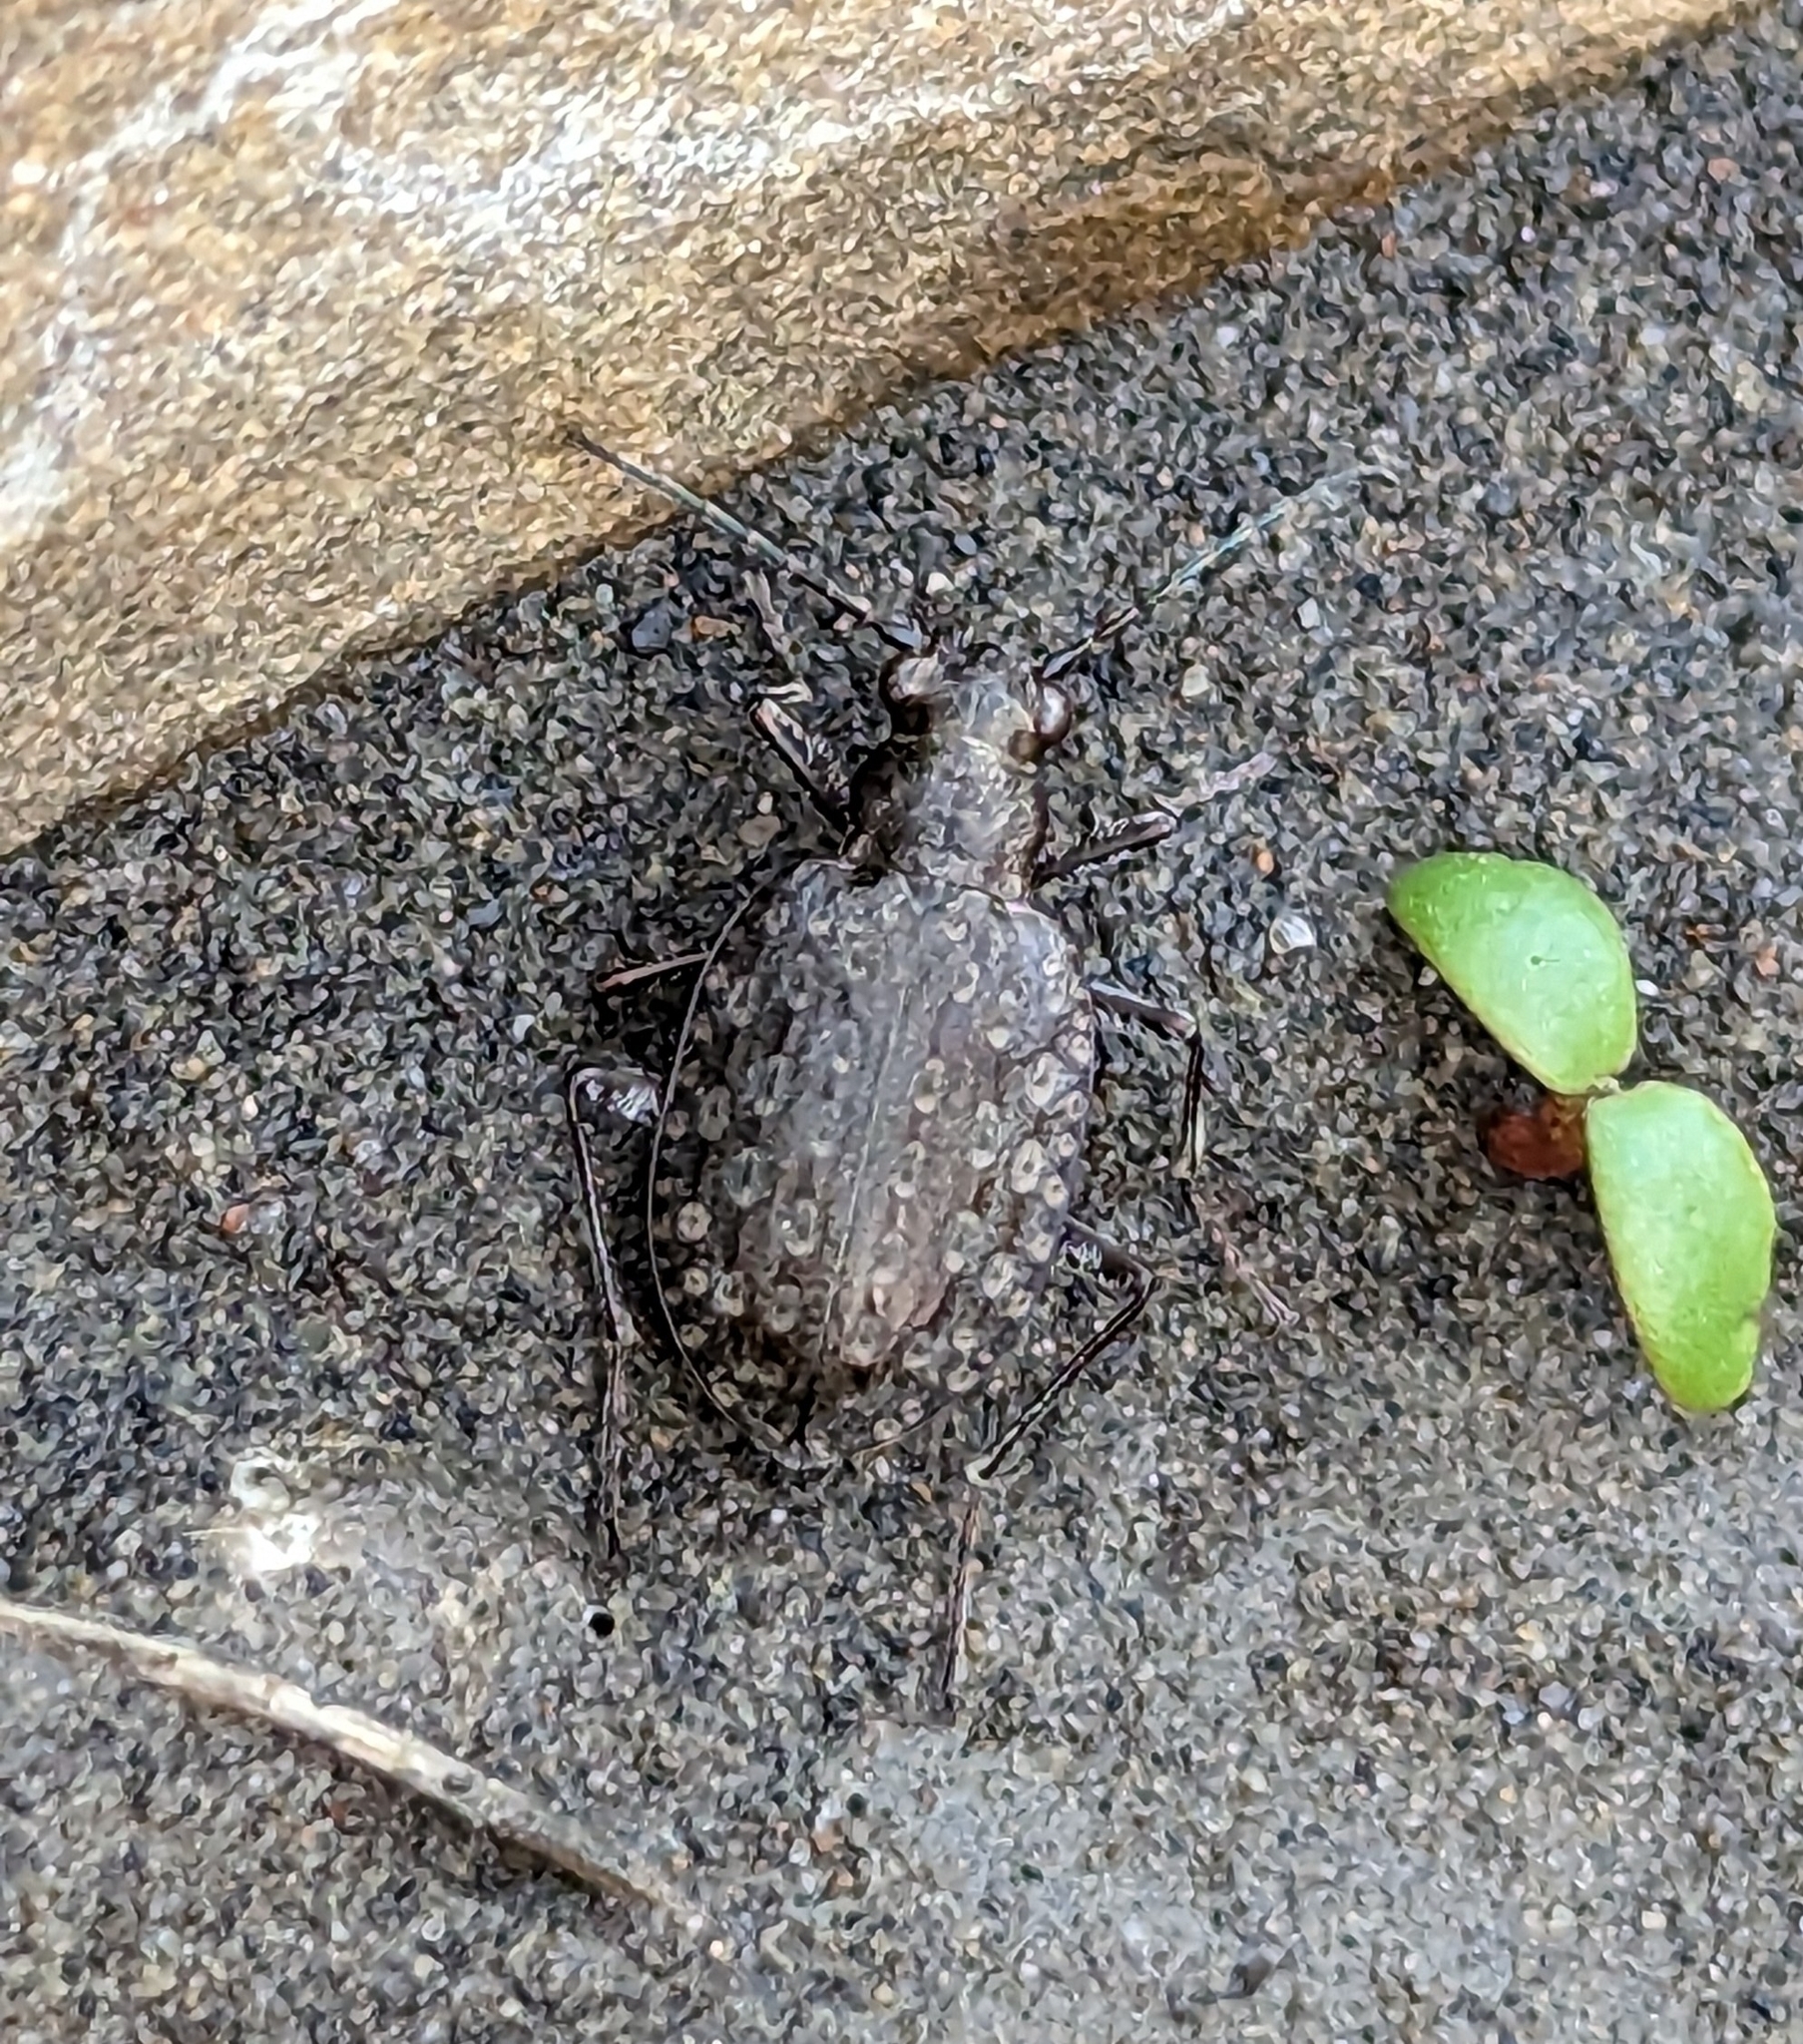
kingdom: Animalia
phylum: Arthropoda
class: Insecta
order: Coleoptera
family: Carabidae
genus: Opisthius
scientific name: Opisthius richardsoni
